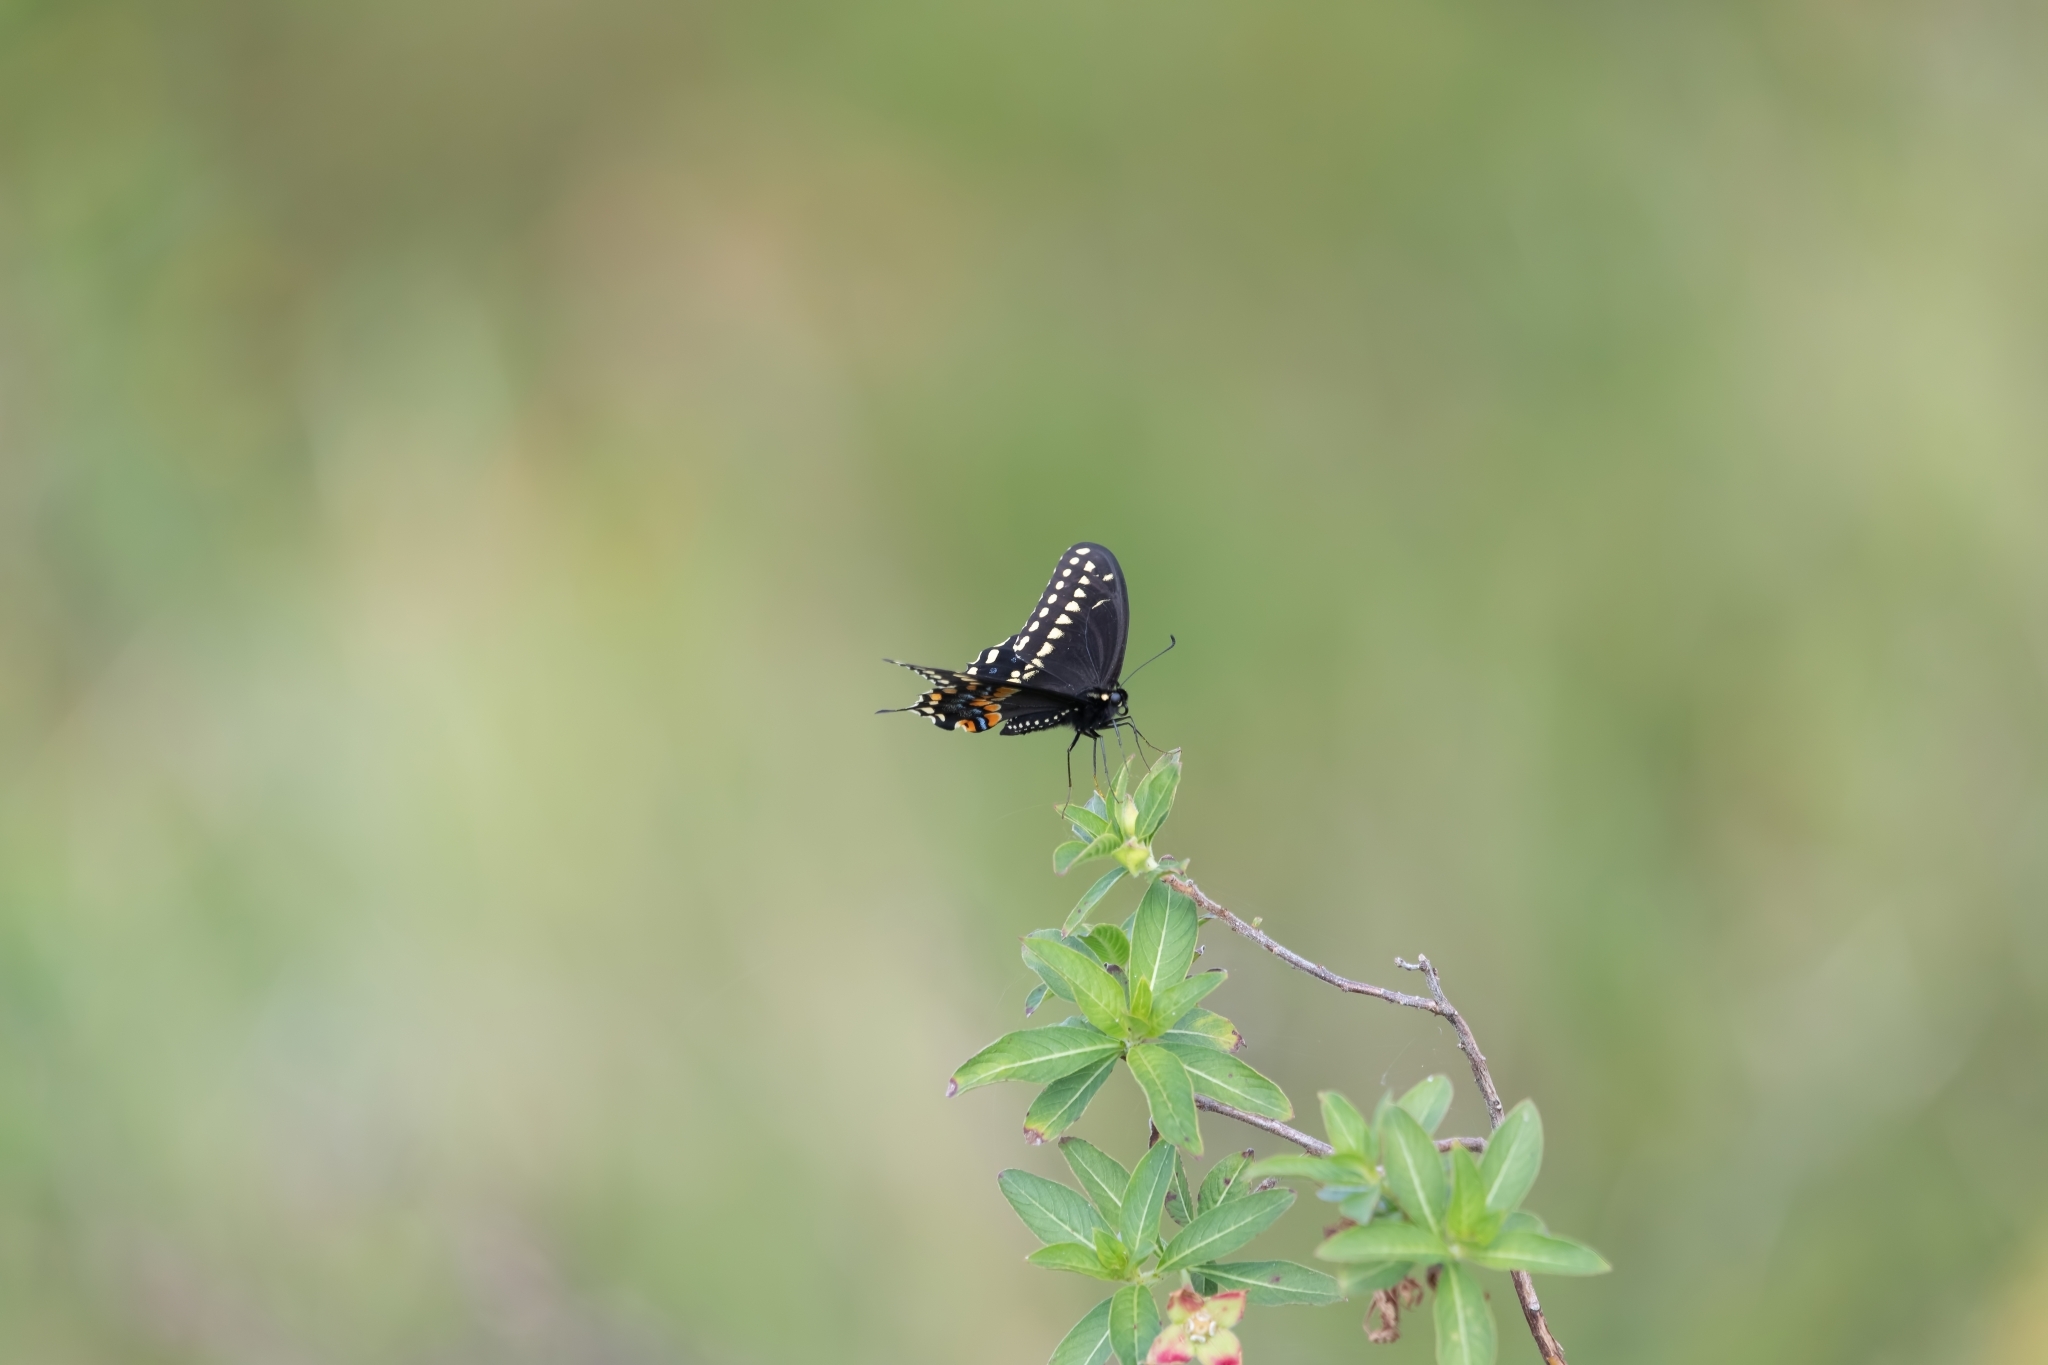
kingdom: Animalia
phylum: Arthropoda
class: Insecta
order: Lepidoptera
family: Papilionidae
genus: Papilio
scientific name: Papilio polyxenes
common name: Black swallowtail
